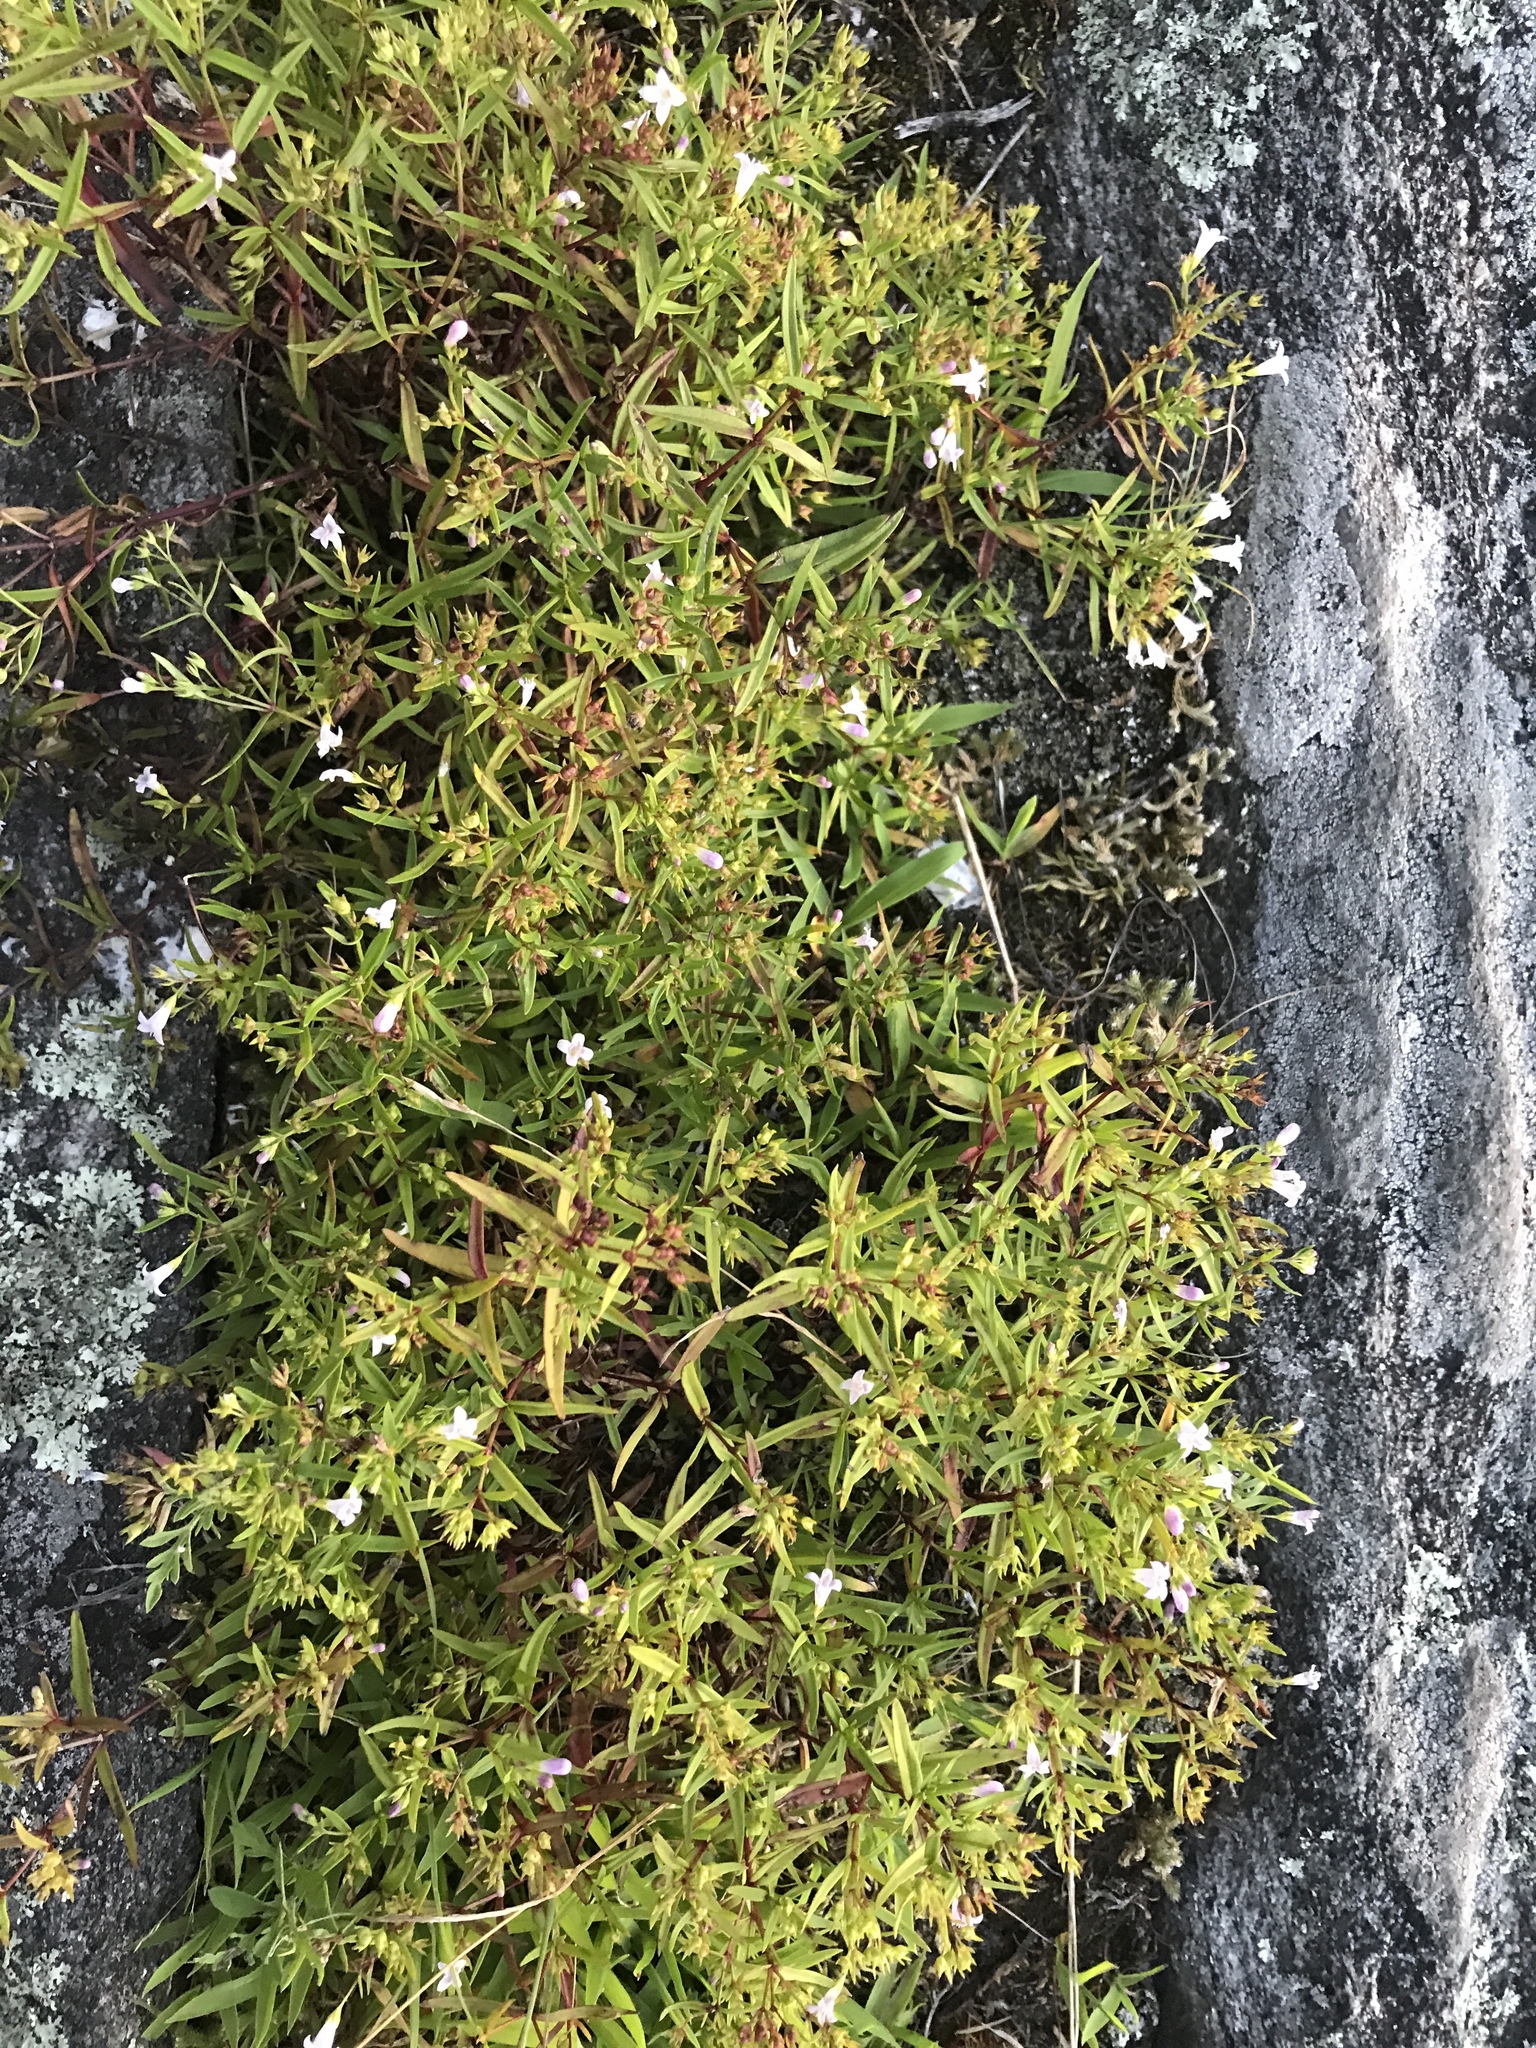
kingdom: Plantae
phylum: Tracheophyta
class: Magnoliopsida
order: Gentianales
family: Rubiaceae
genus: Houstonia
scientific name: Houstonia longifolia
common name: Long-leaved bluets
